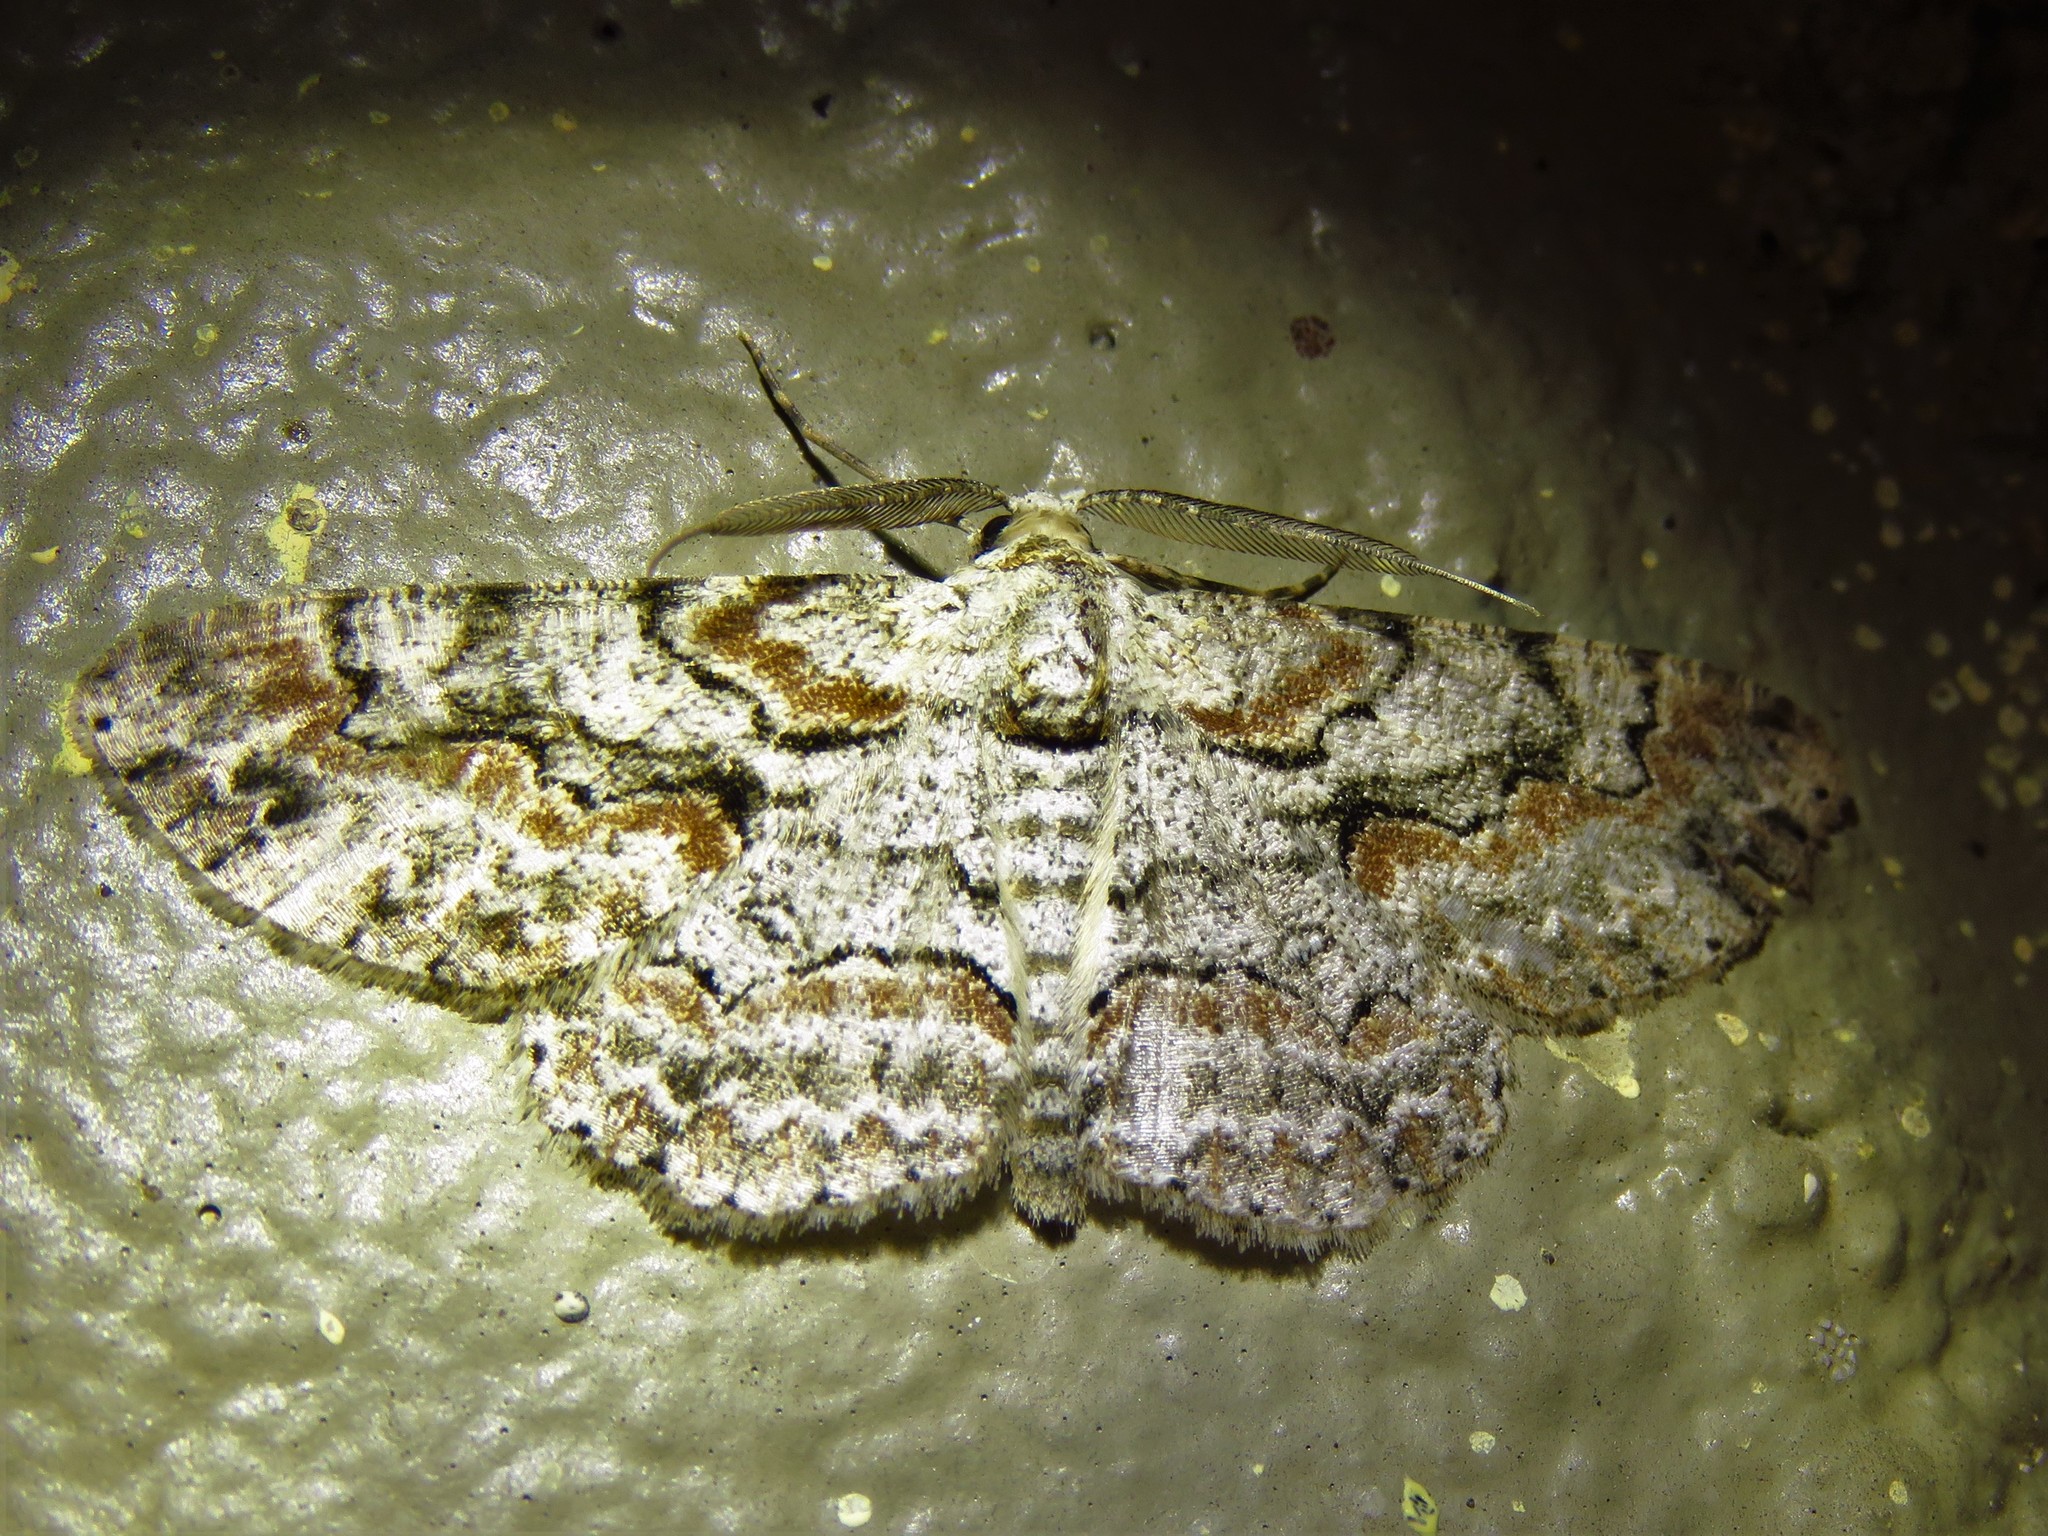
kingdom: Animalia
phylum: Arthropoda
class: Insecta
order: Lepidoptera
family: Geometridae
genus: Iridopsis
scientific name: Iridopsis defectaria
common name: Brown-shaded gray
